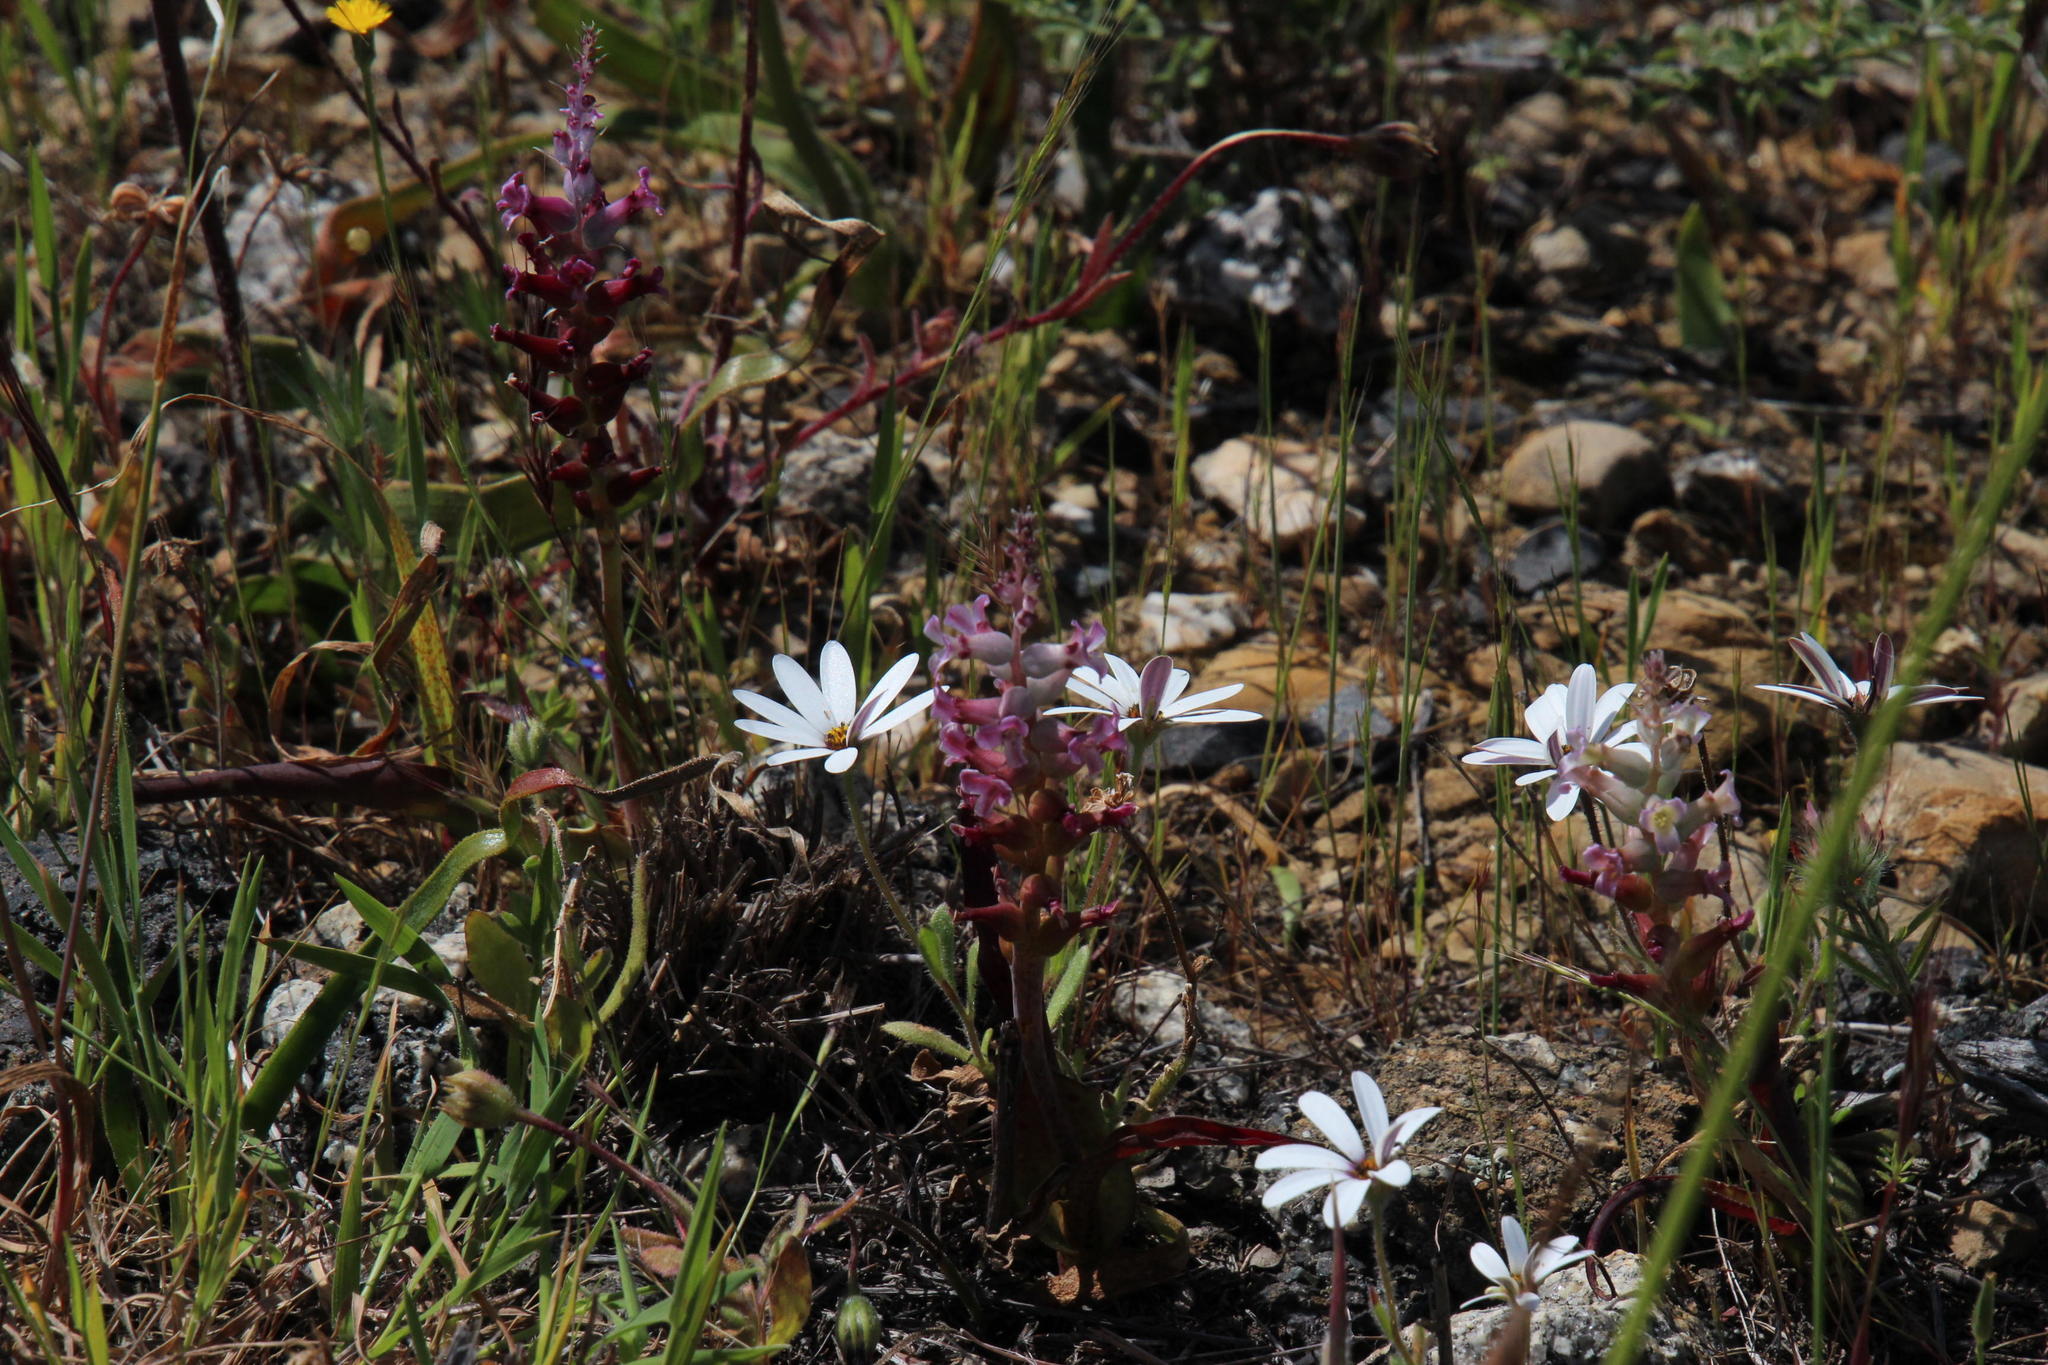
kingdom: Plantae
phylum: Tracheophyta
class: Magnoliopsida
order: Asterales
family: Asteraceae
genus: Dimorphotheca
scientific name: Dimorphotheca pluvialis
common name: Weather prophet
